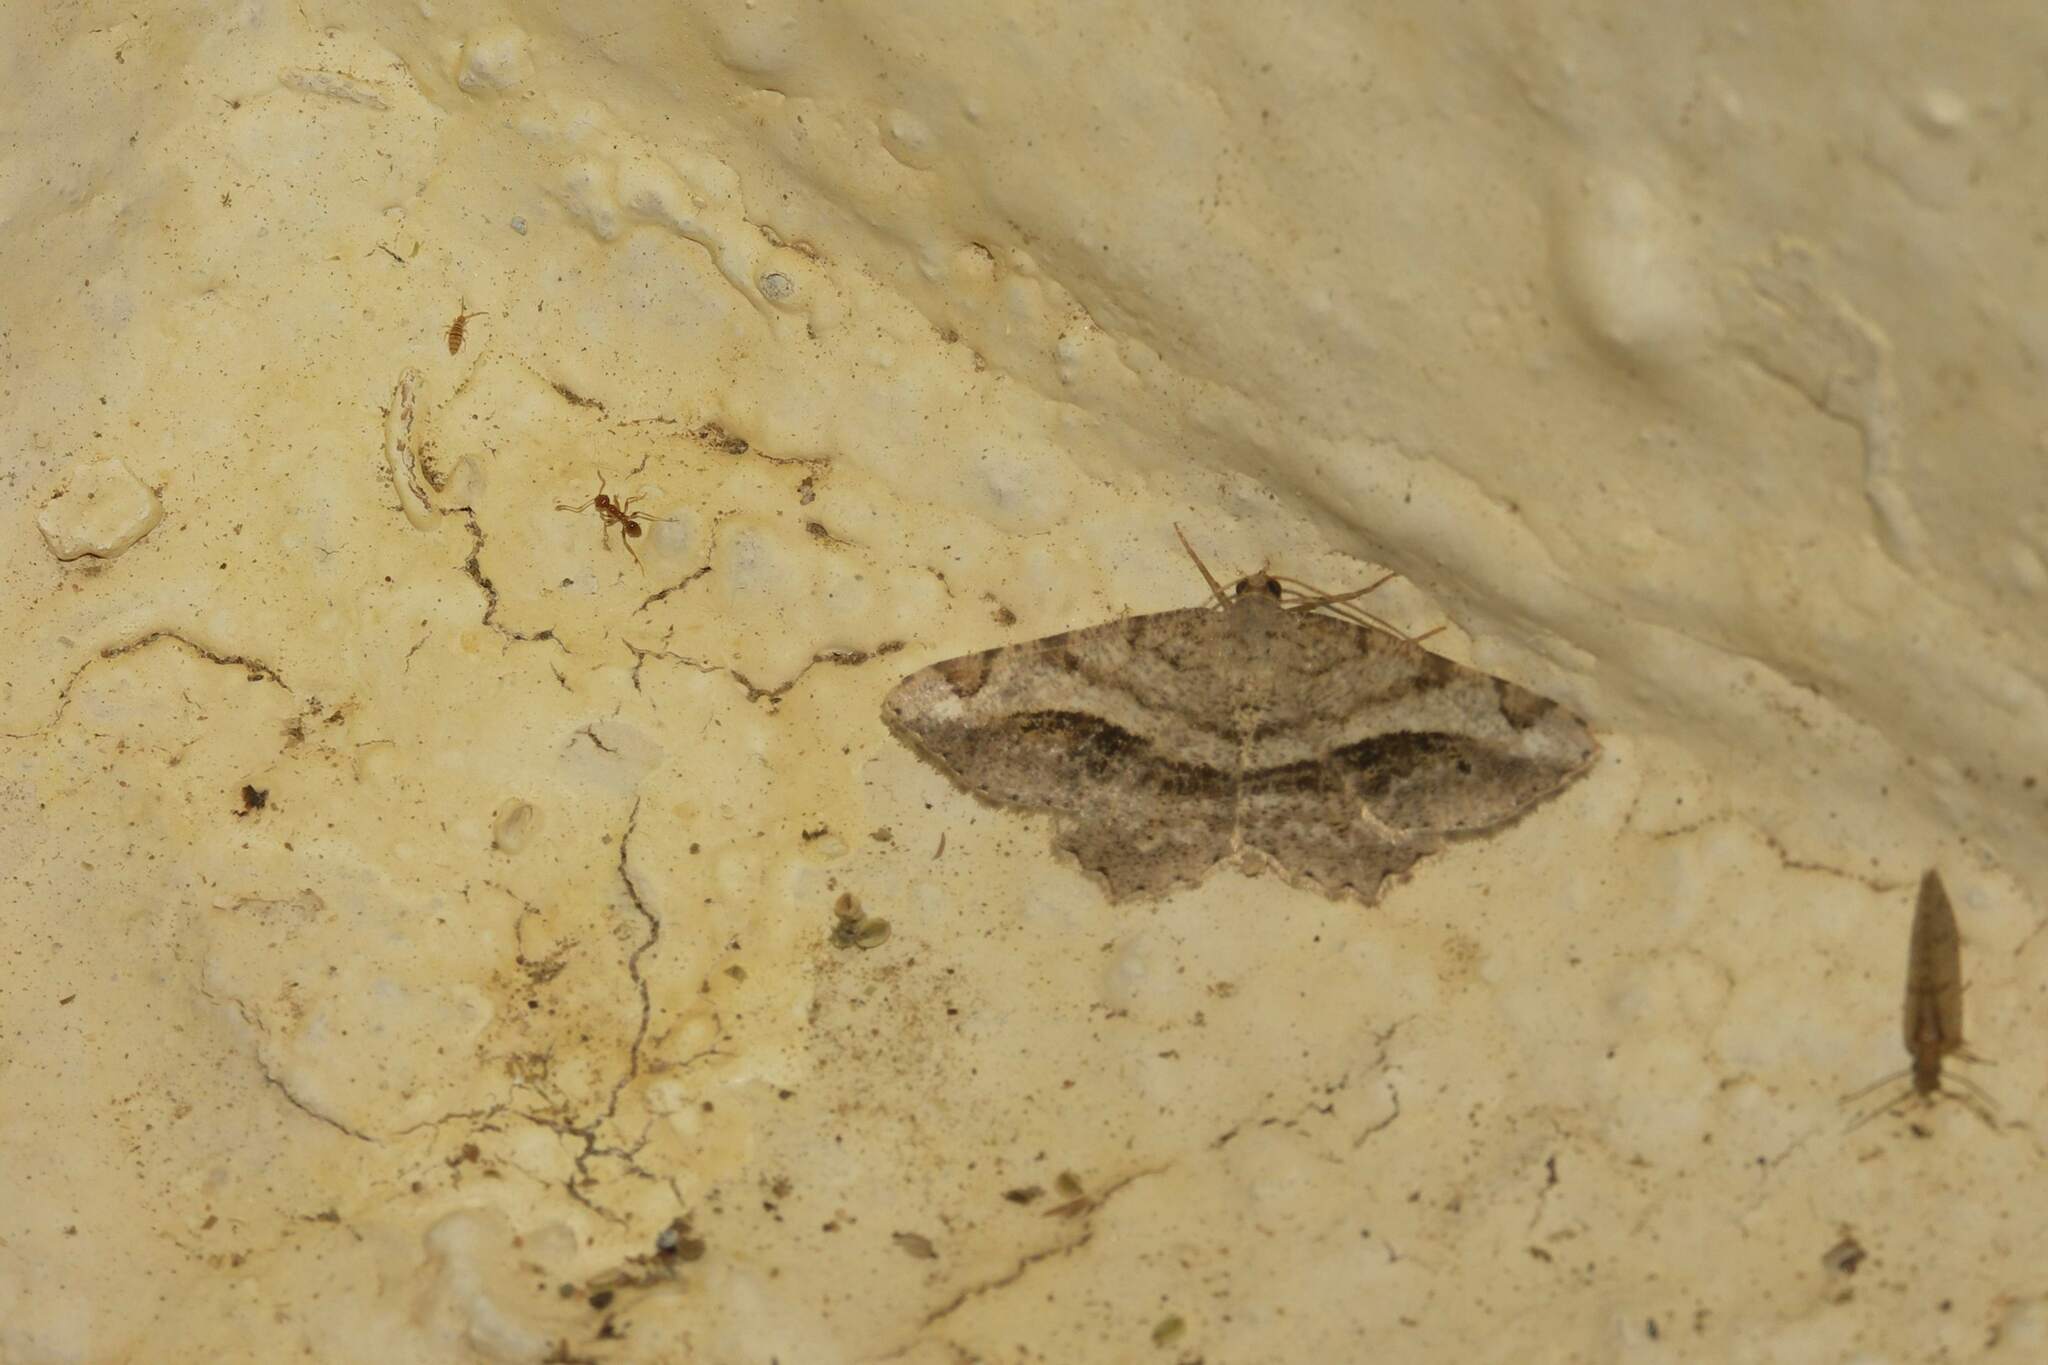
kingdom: Animalia
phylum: Arthropoda
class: Insecta
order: Lepidoptera
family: Geometridae
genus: Chiasmia
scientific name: Chiasmia aestimaria
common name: Tamarisk peacock
